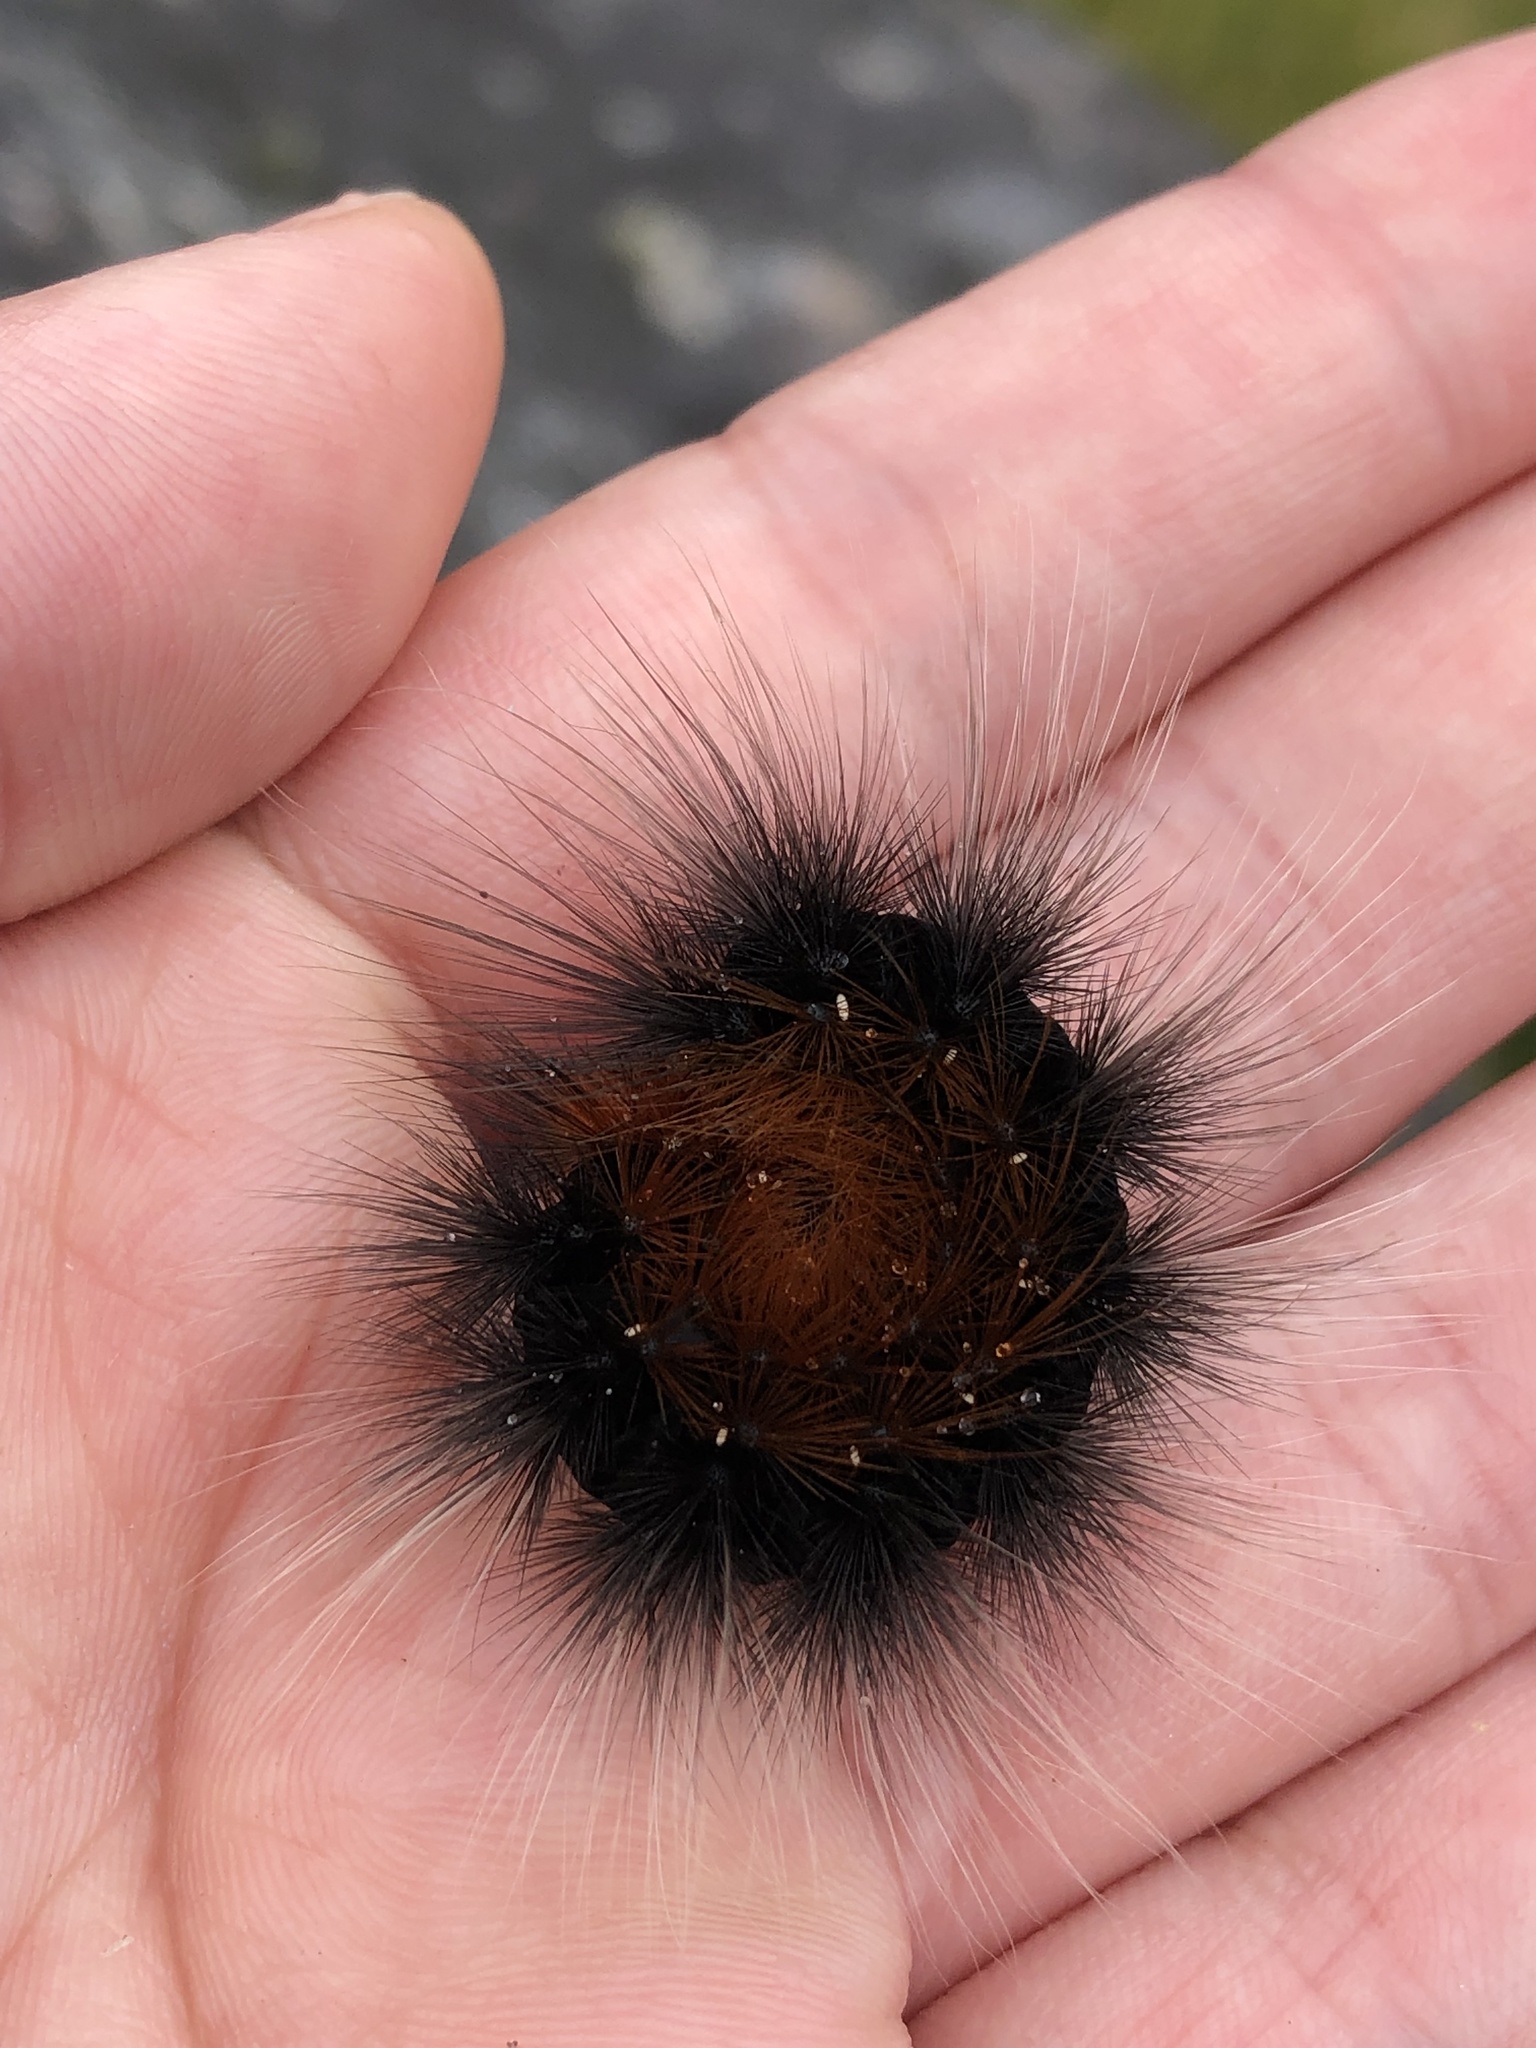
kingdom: Animalia
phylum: Arthropoda
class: Insecta
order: Lepidoptera
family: Erebidae
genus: Arctia
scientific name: Arctia caja
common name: Garden tiger
